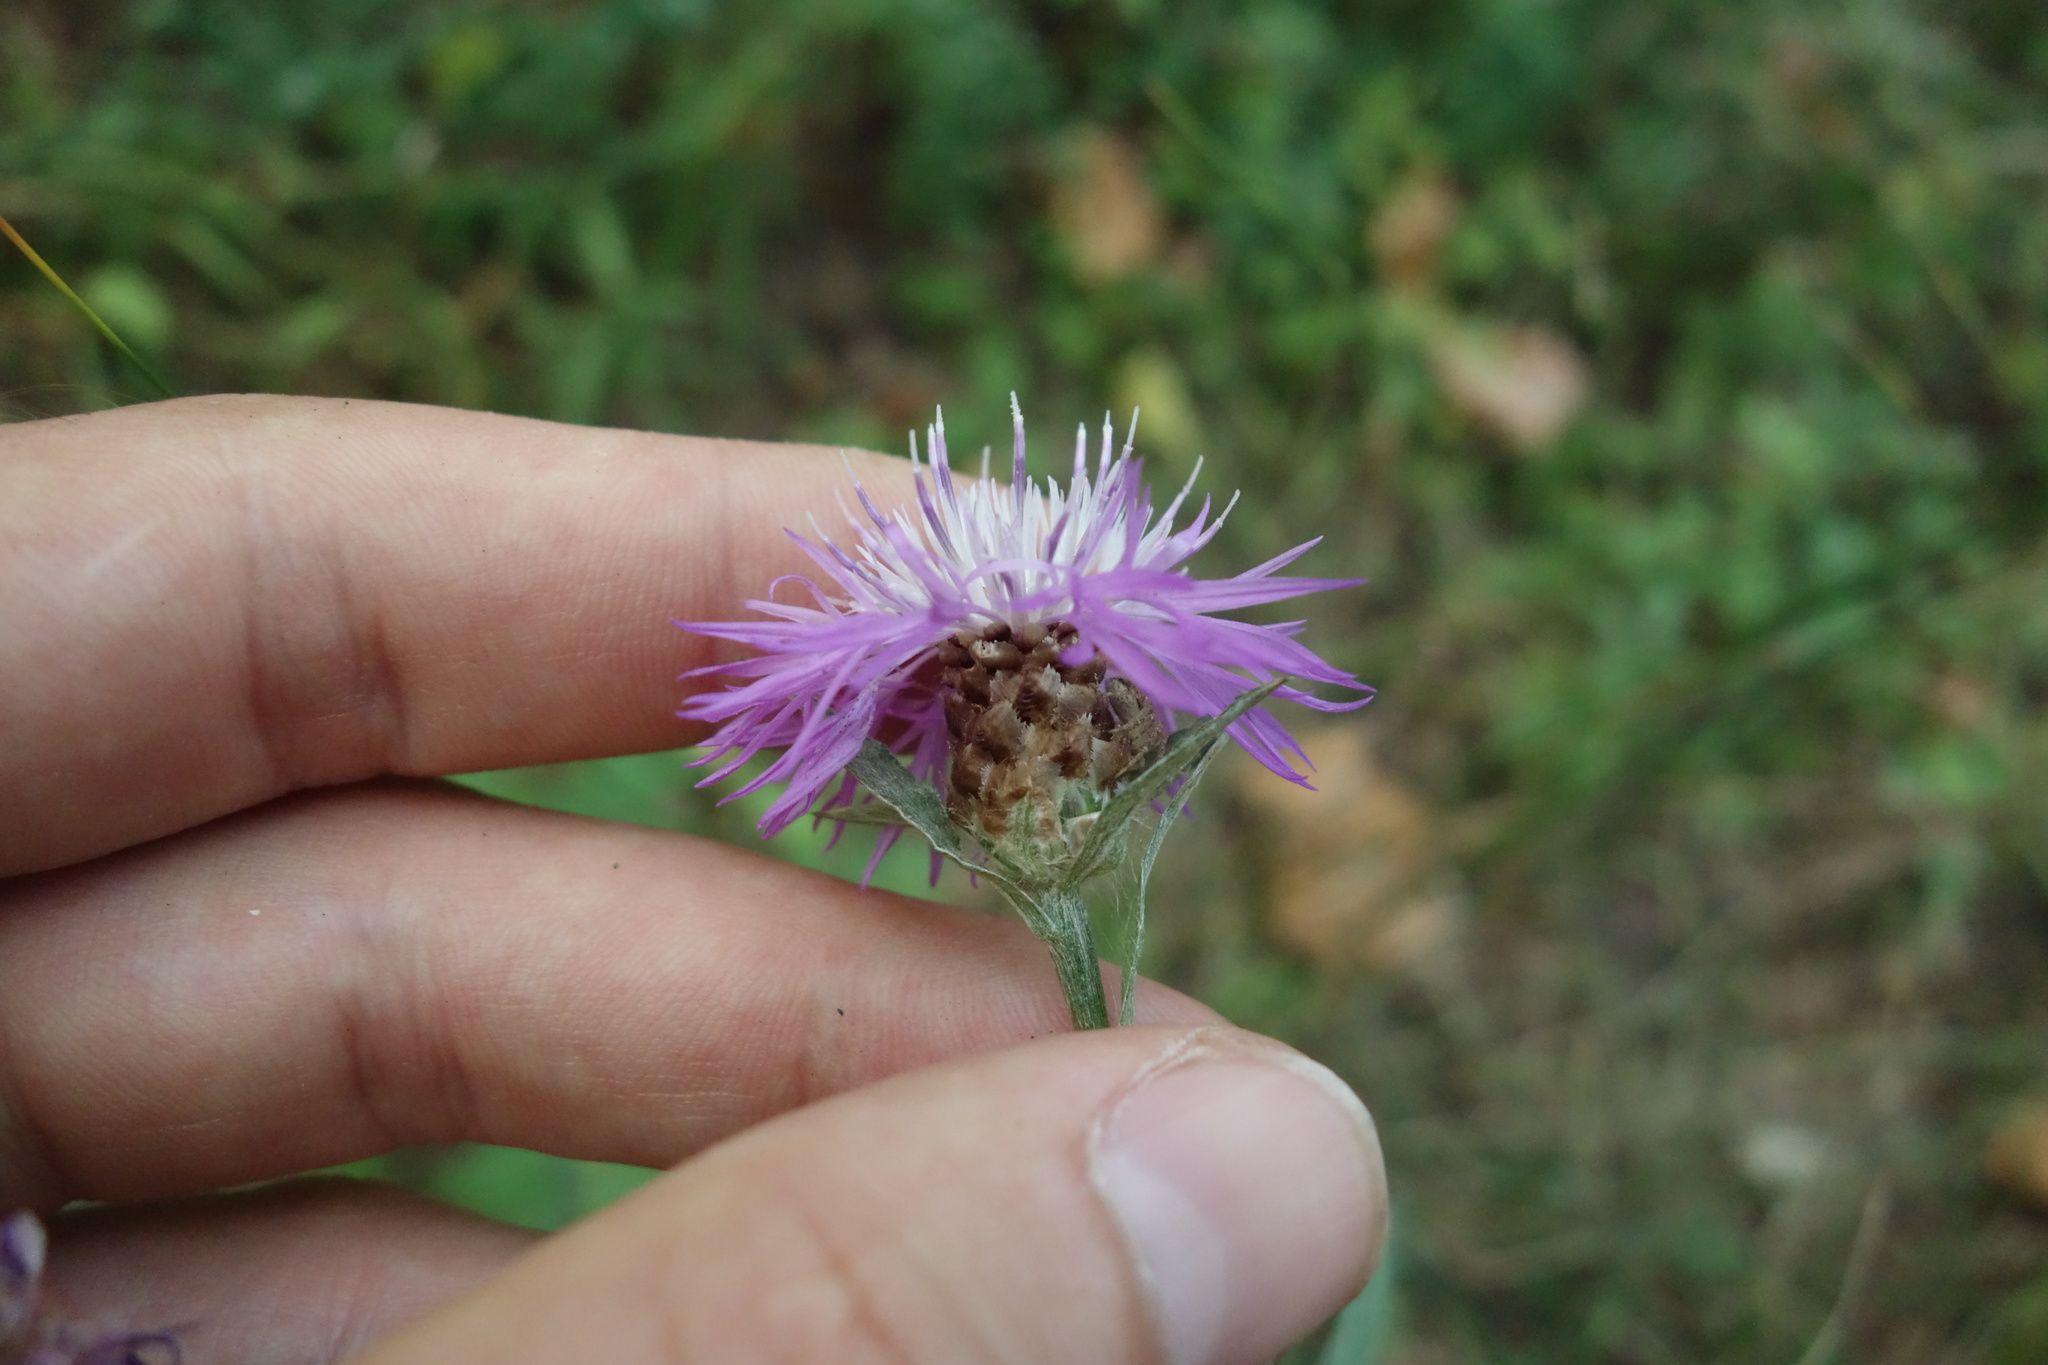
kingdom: Plantae
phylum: Tracheophyta
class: Magnoliopsida
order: Asterales
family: Asteraceae
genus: Centaurea
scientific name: Centaurea jacea
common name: Brown knapweed
